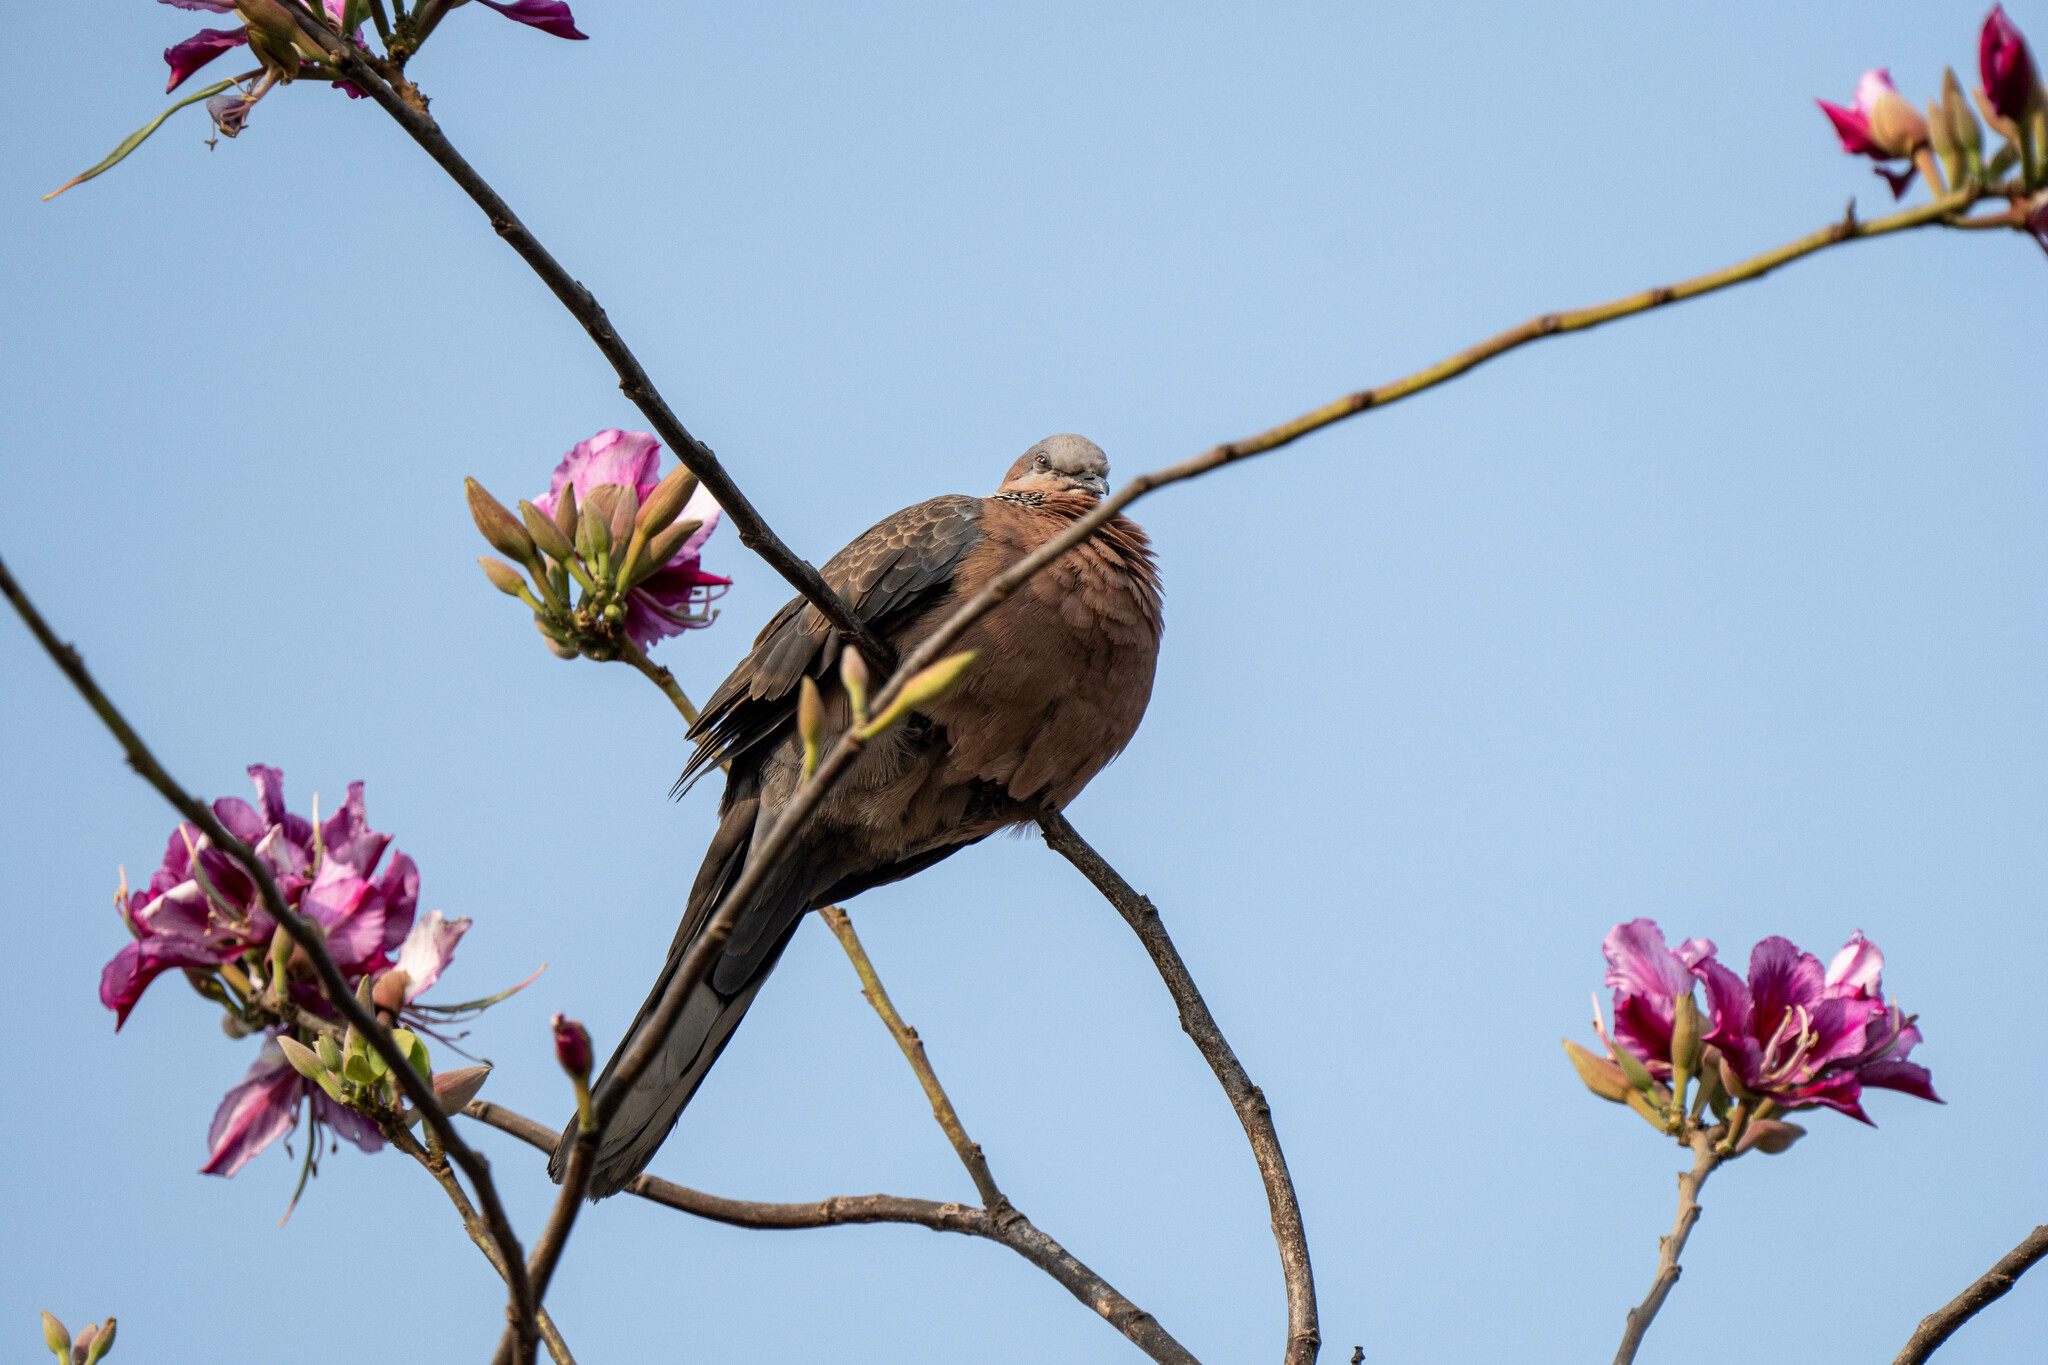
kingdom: Animalia
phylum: Chordata
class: Aves
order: Columbiformes
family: Columbidae
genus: Spilopelia
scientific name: Spilopelia chinensis
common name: Spotted dove
